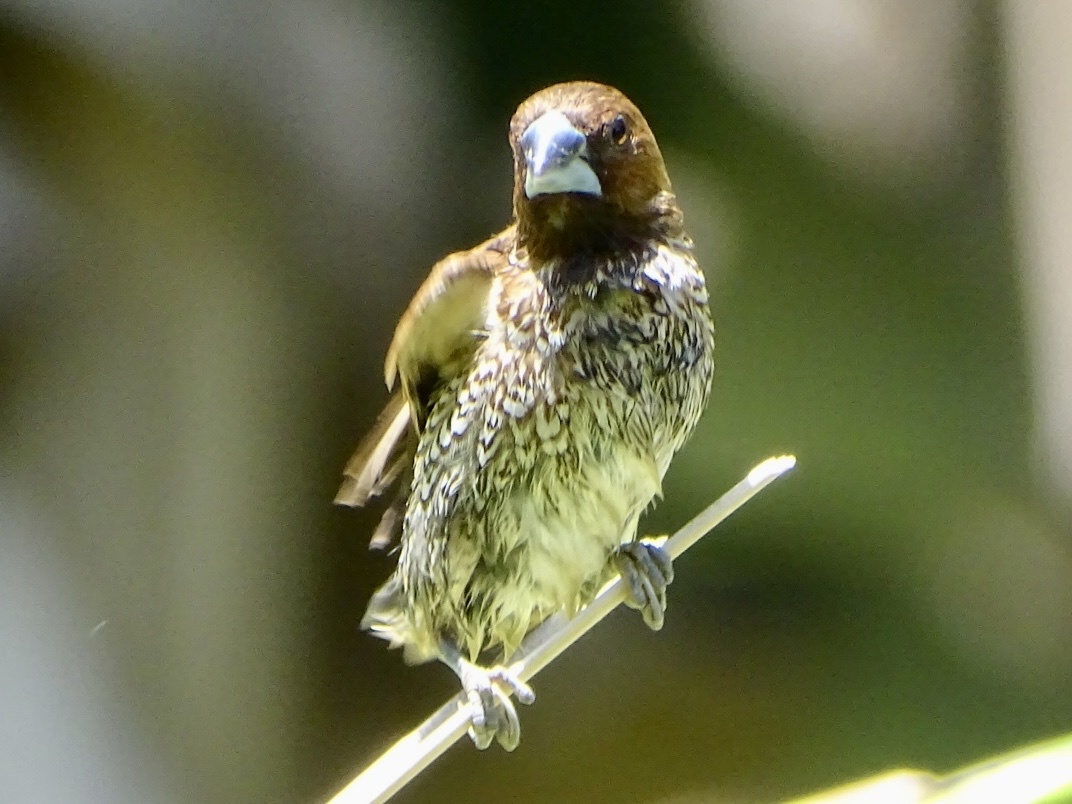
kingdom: Animalia
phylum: Chordata
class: Aves
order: Passeriformes
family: Estrildidae
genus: Lonchura
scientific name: Lonchura punctulata
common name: Scaly-breasted munia
